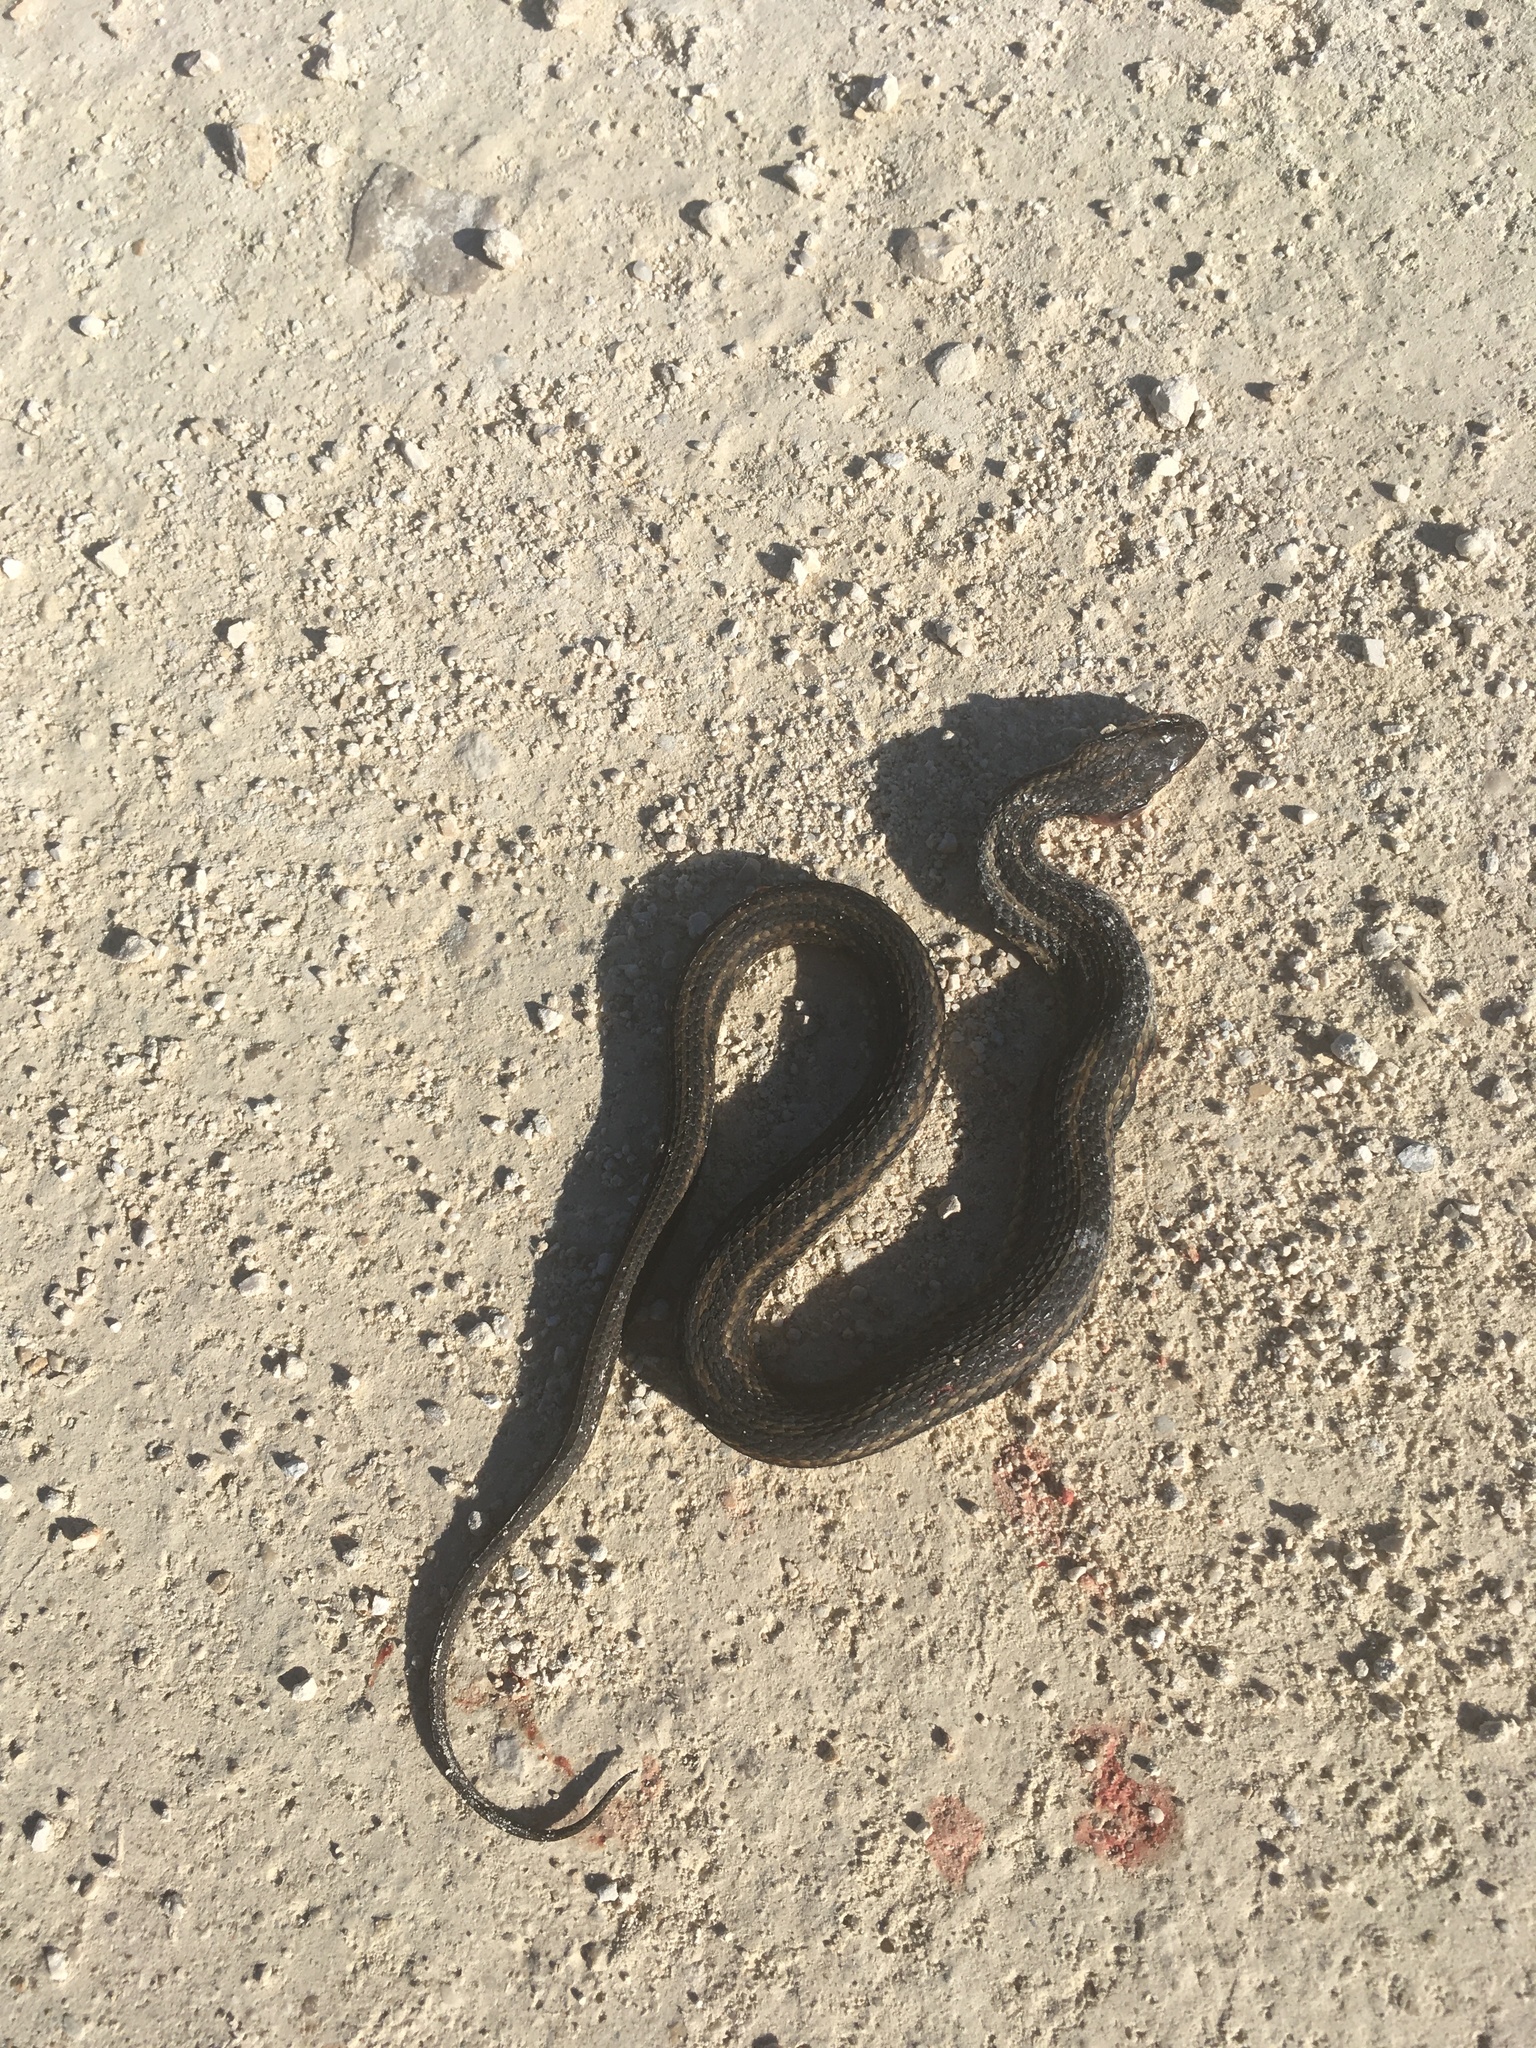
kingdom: Animalia
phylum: Chordata
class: Squamata
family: Colubridae
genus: Nerodia
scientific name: Nerodia clarkii
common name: Atlantic saltmarsh snake
